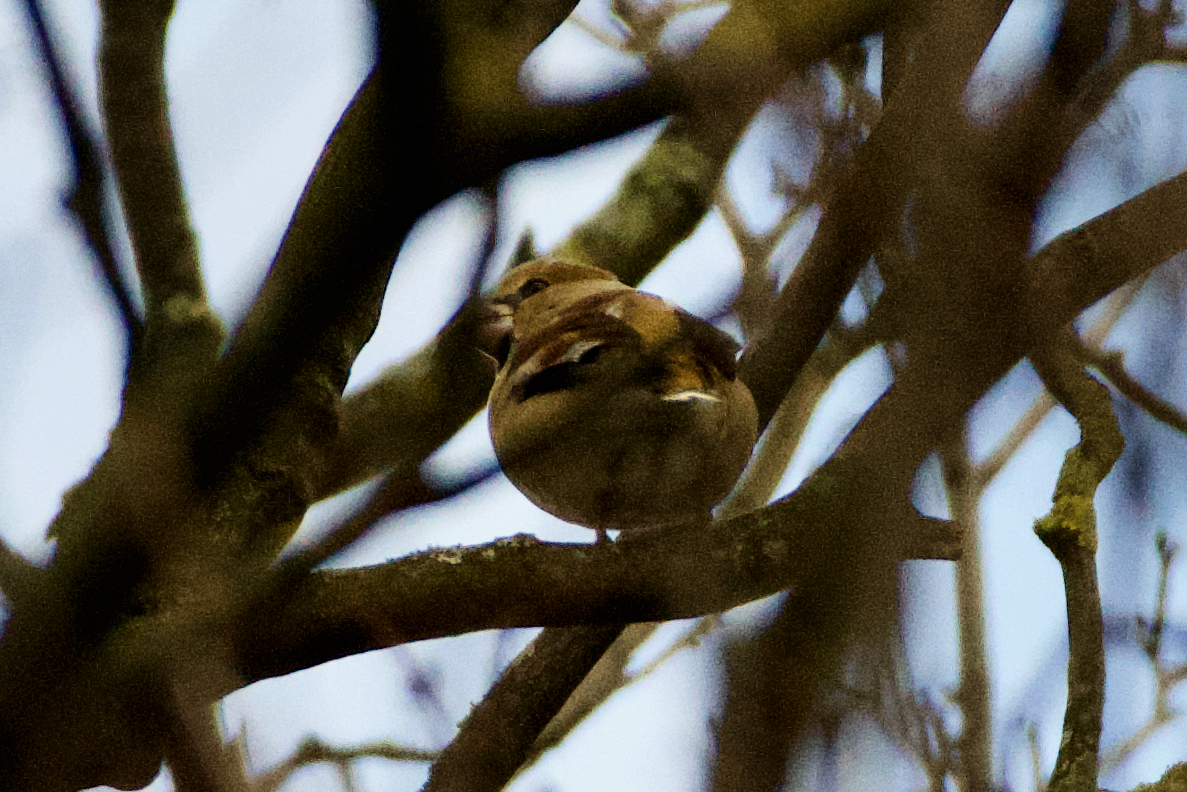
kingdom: Animalia
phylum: Chordata
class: Aves
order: Passeriformes
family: Fringillidae
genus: Coccothraustes
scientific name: Coccothraustes coccothraustes
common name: Hawfinch
